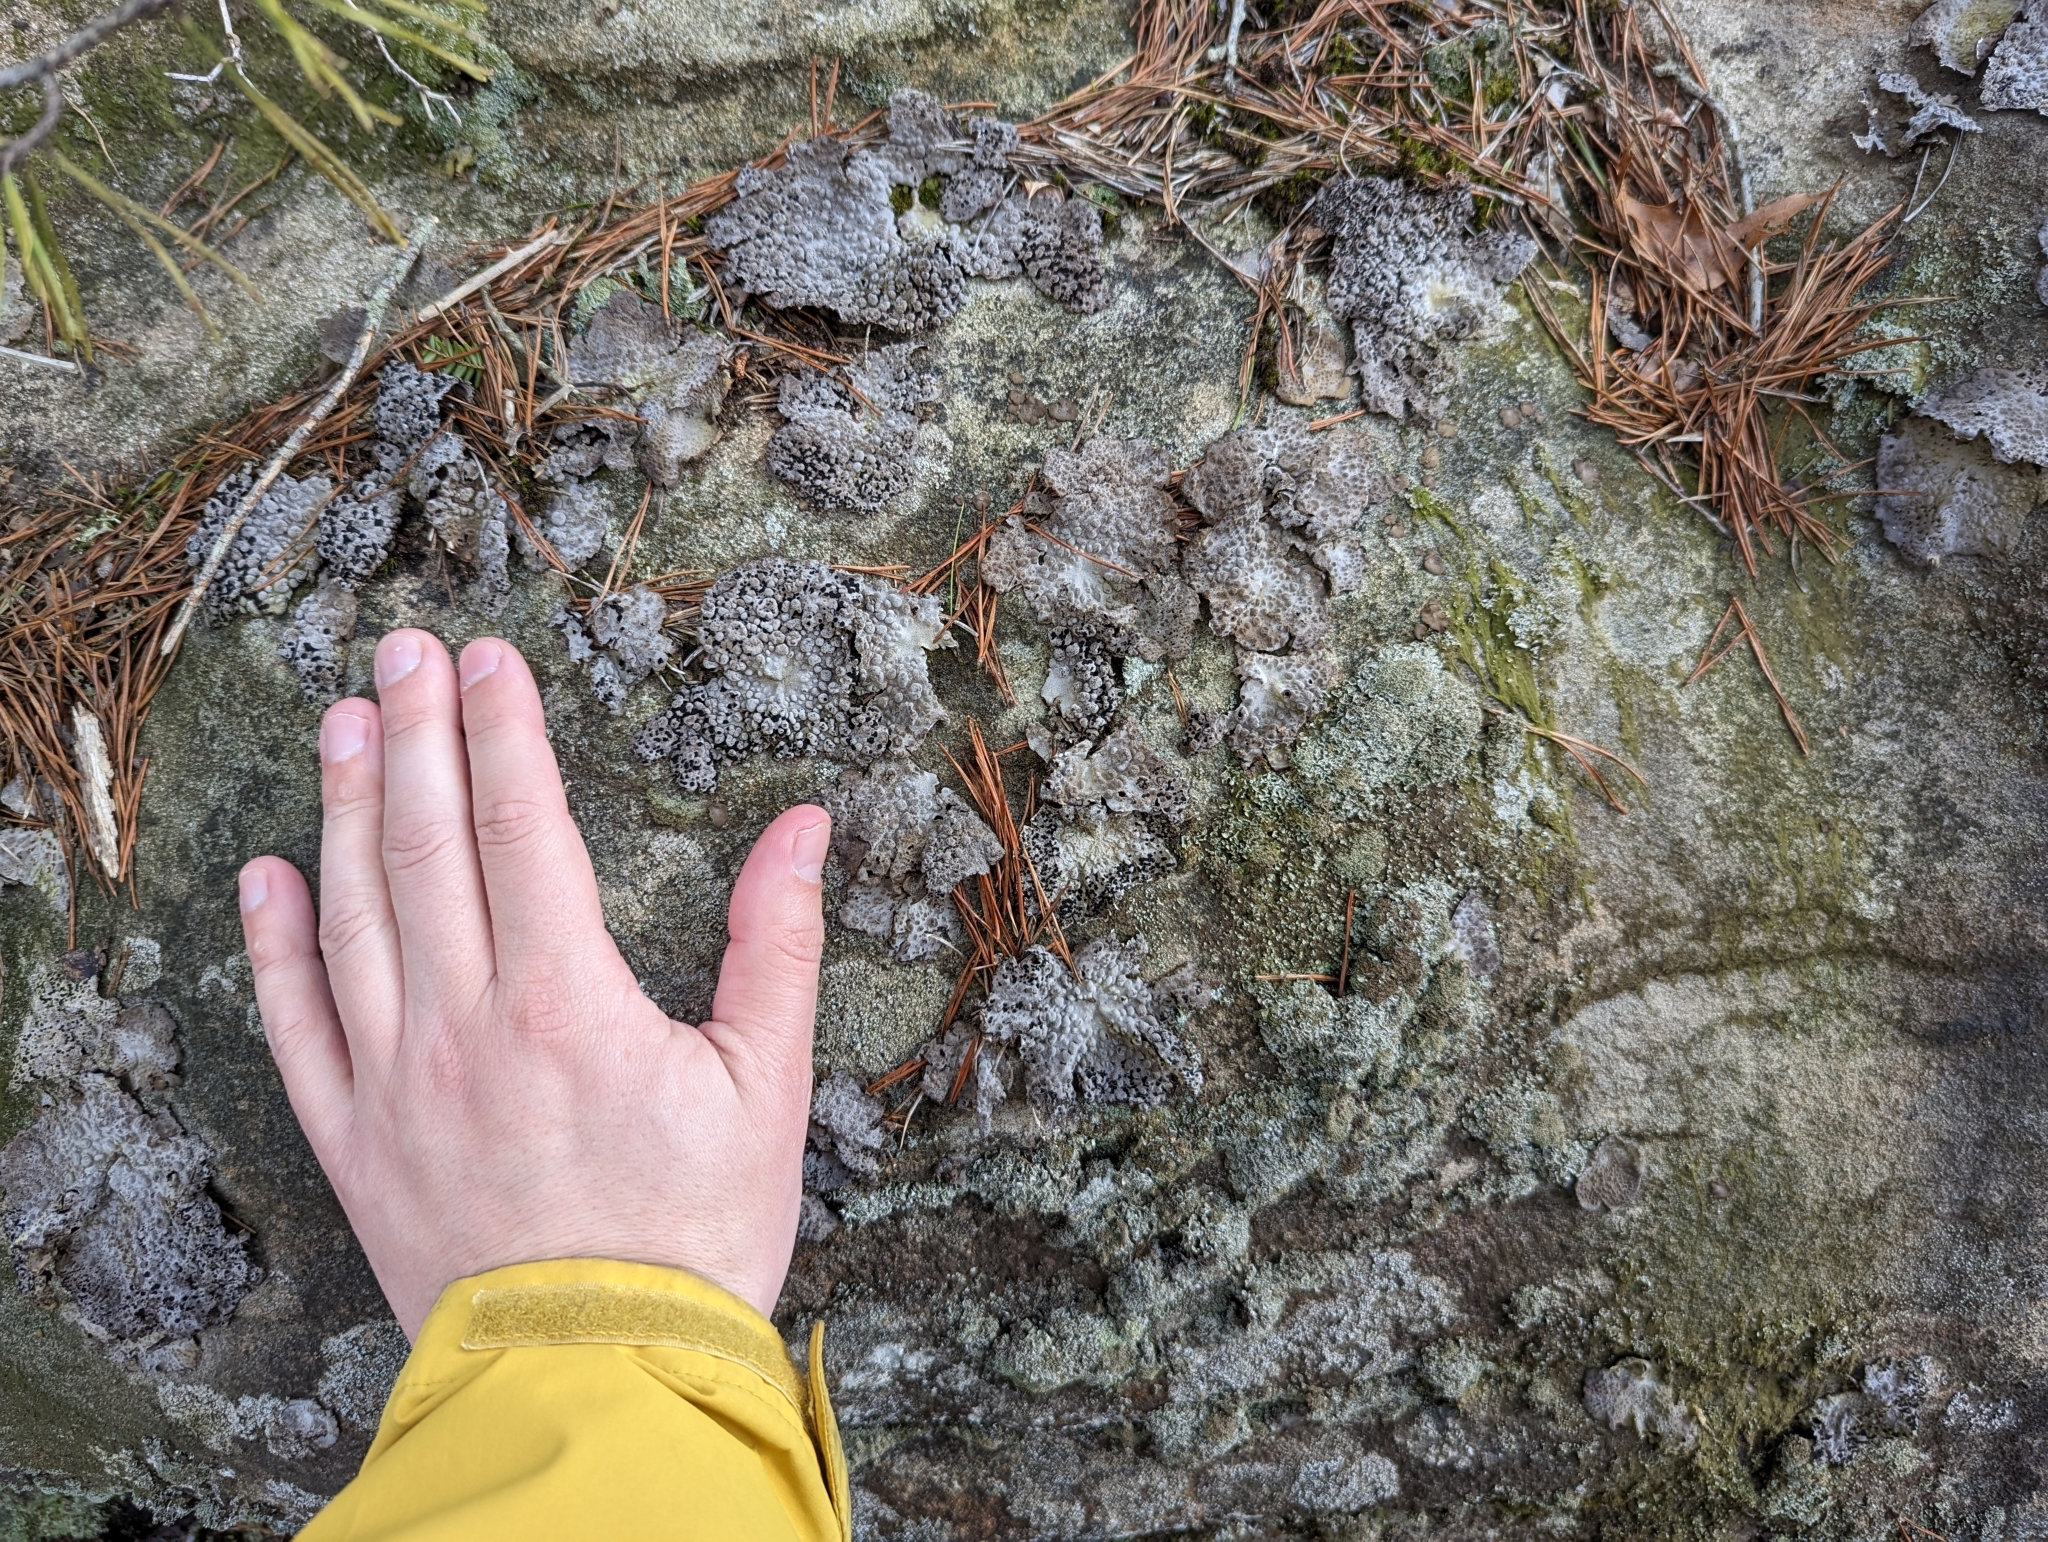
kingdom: Fungi
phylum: Ascomycota
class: Lecanoromycetes
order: Umbilicariales
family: Umbilicariaceae
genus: Lasallia
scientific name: Lasallia papulosa
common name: Common toadskin lichen
